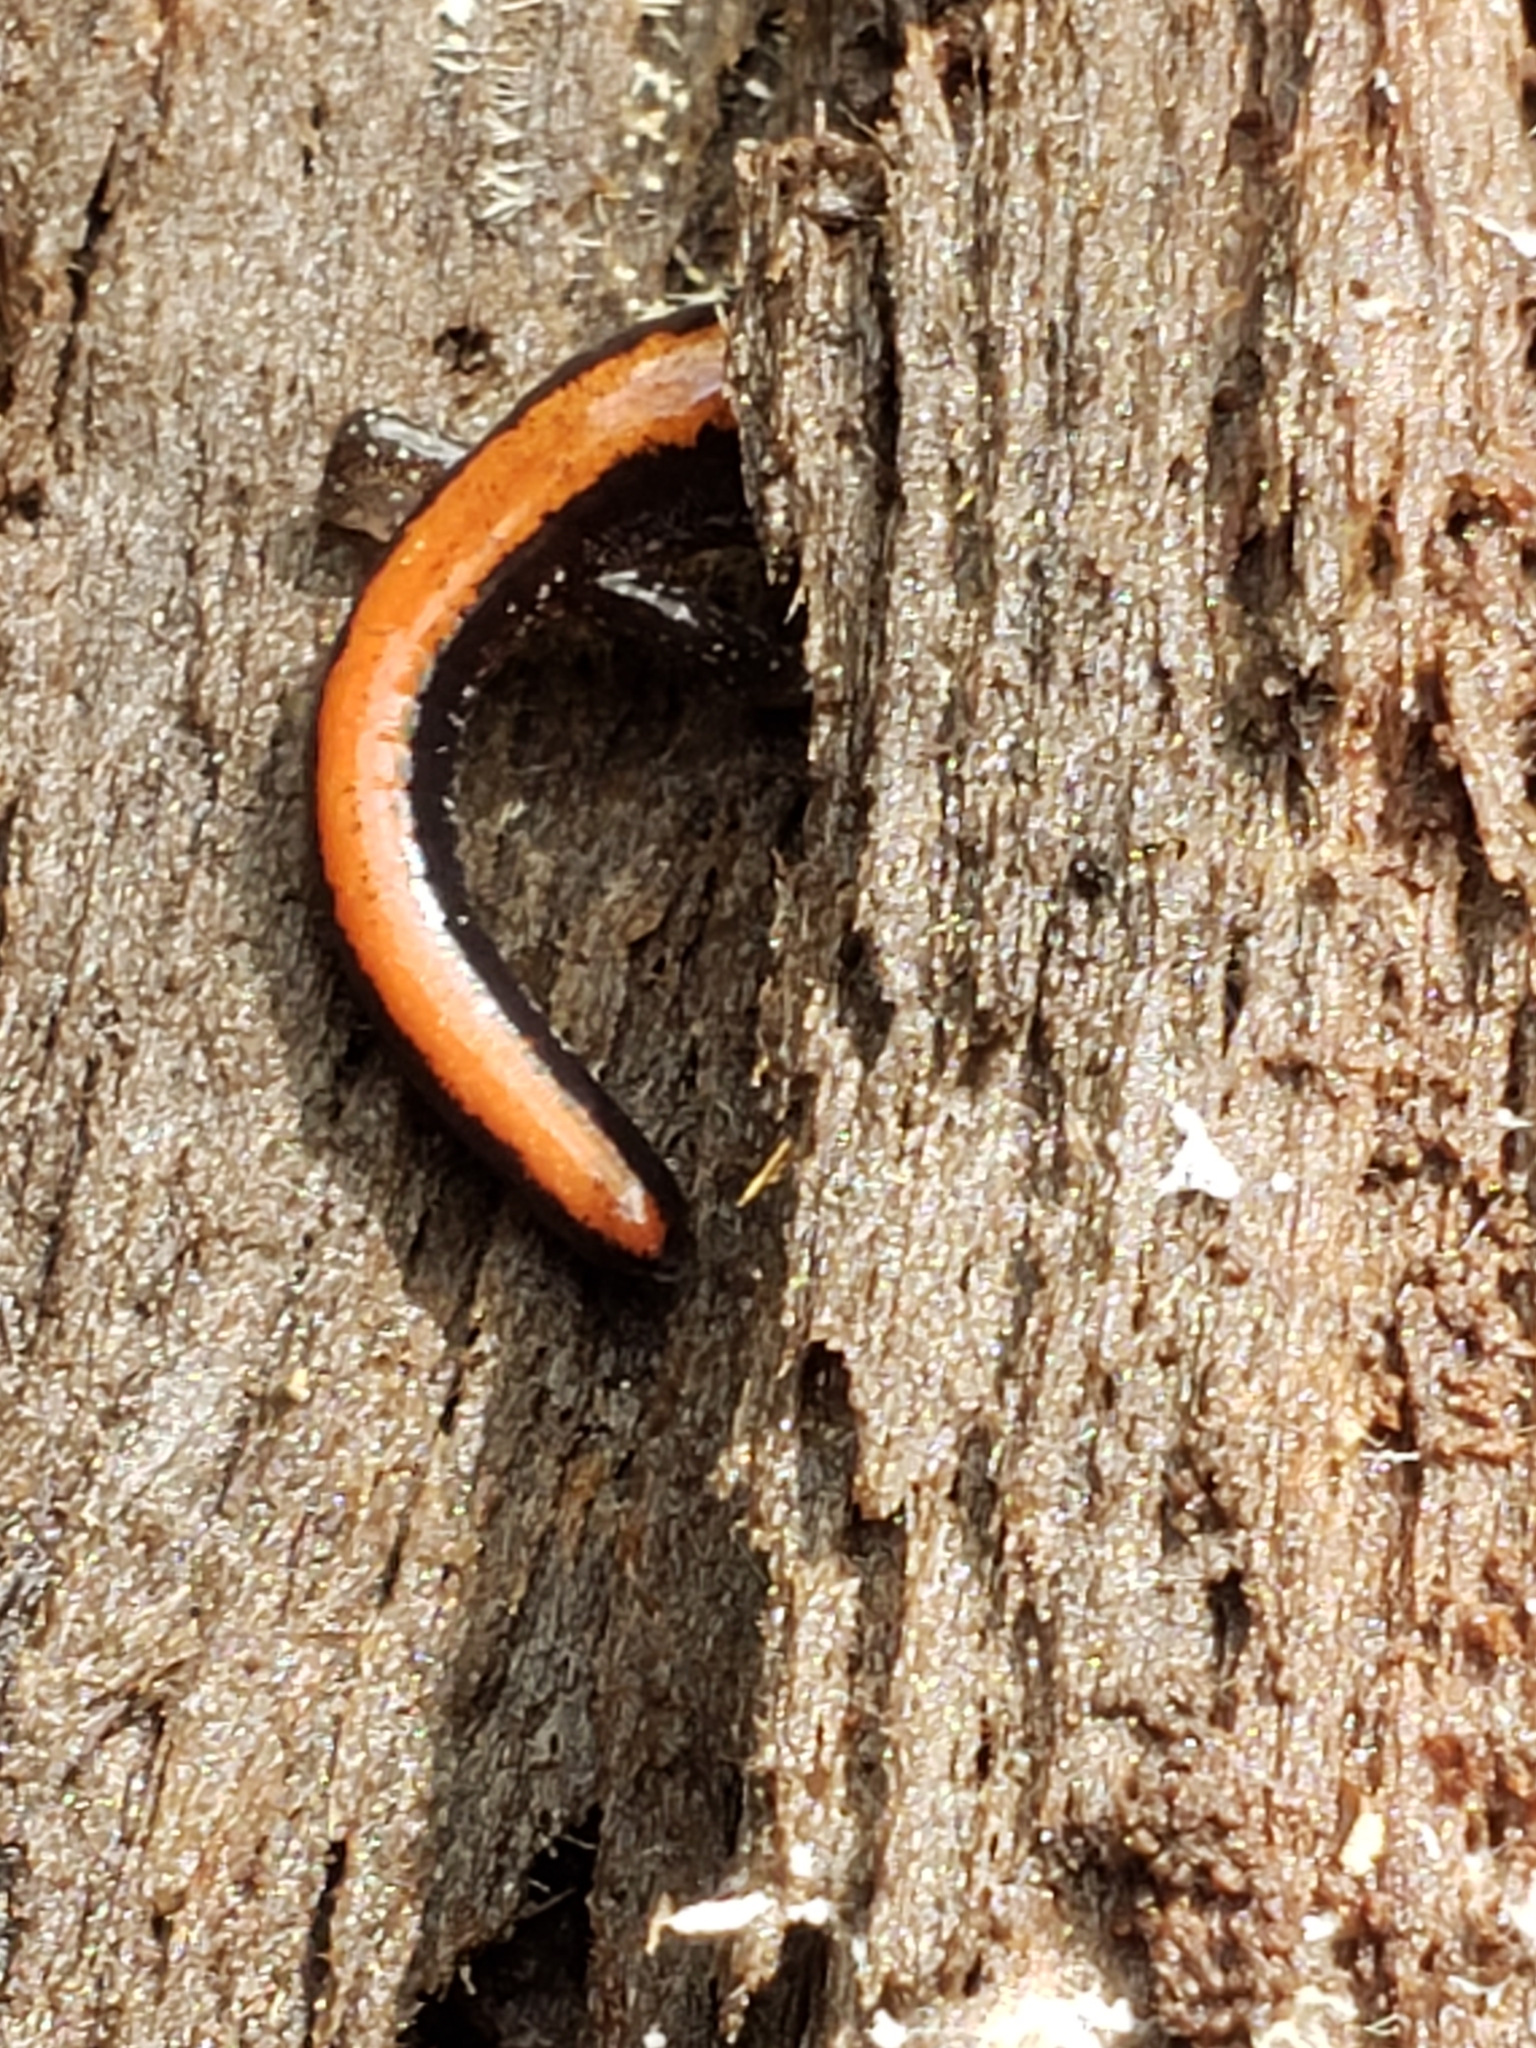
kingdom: Animalia
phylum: Chordata
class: Amphibia
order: Caudata
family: Plethodontidae
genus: Plethodon
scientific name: Plethodon cinereus
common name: Redback salamander
